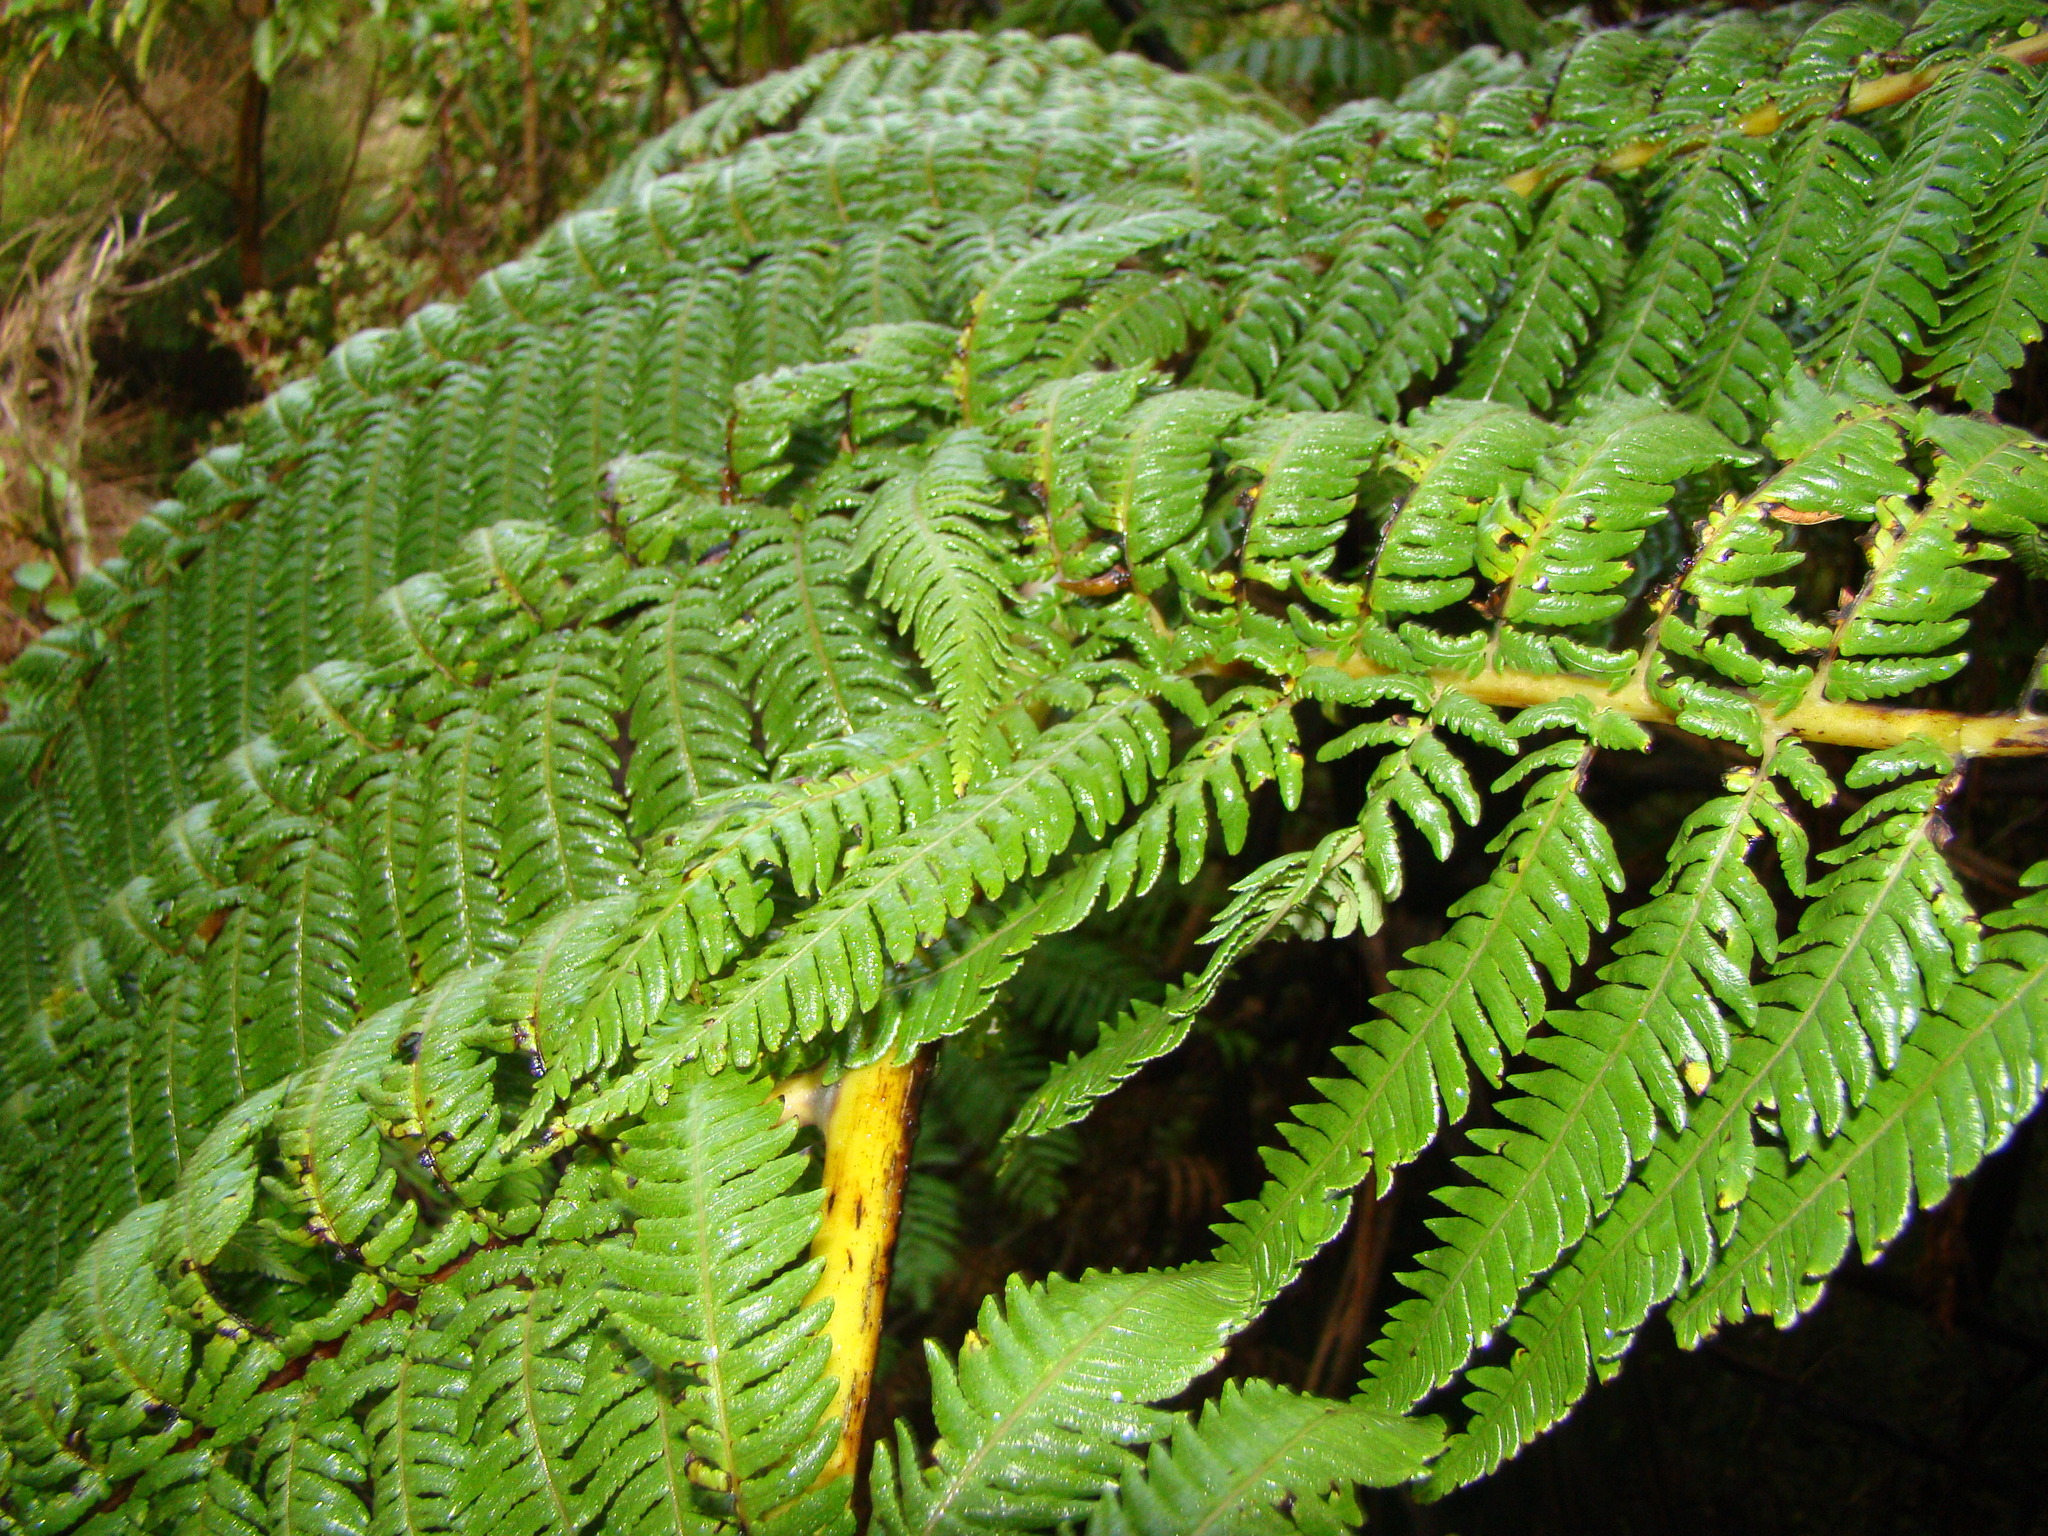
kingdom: Plantae
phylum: Tracheophyta
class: Polypodiopsida
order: Cyatheales
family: Cyatheaceae
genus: Sphaeropteris
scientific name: Sphaeropteris medullaris
